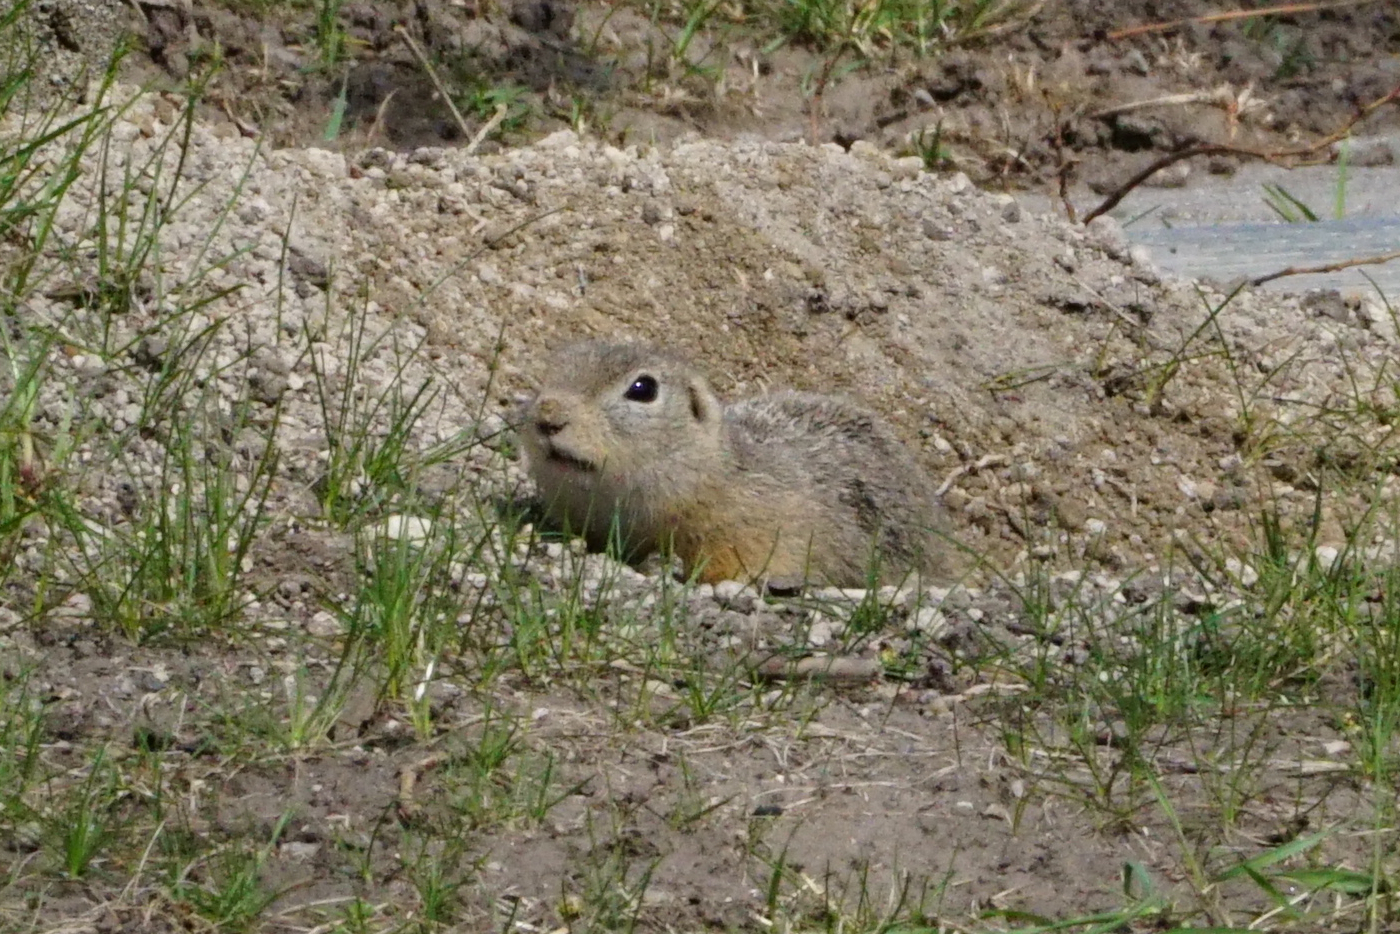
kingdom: Animalia
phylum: Chordata
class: Mammalia
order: Rodentia
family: Sciuridae
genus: Spermophilus
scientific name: Spermophilus citellus
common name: European ground squirrel
